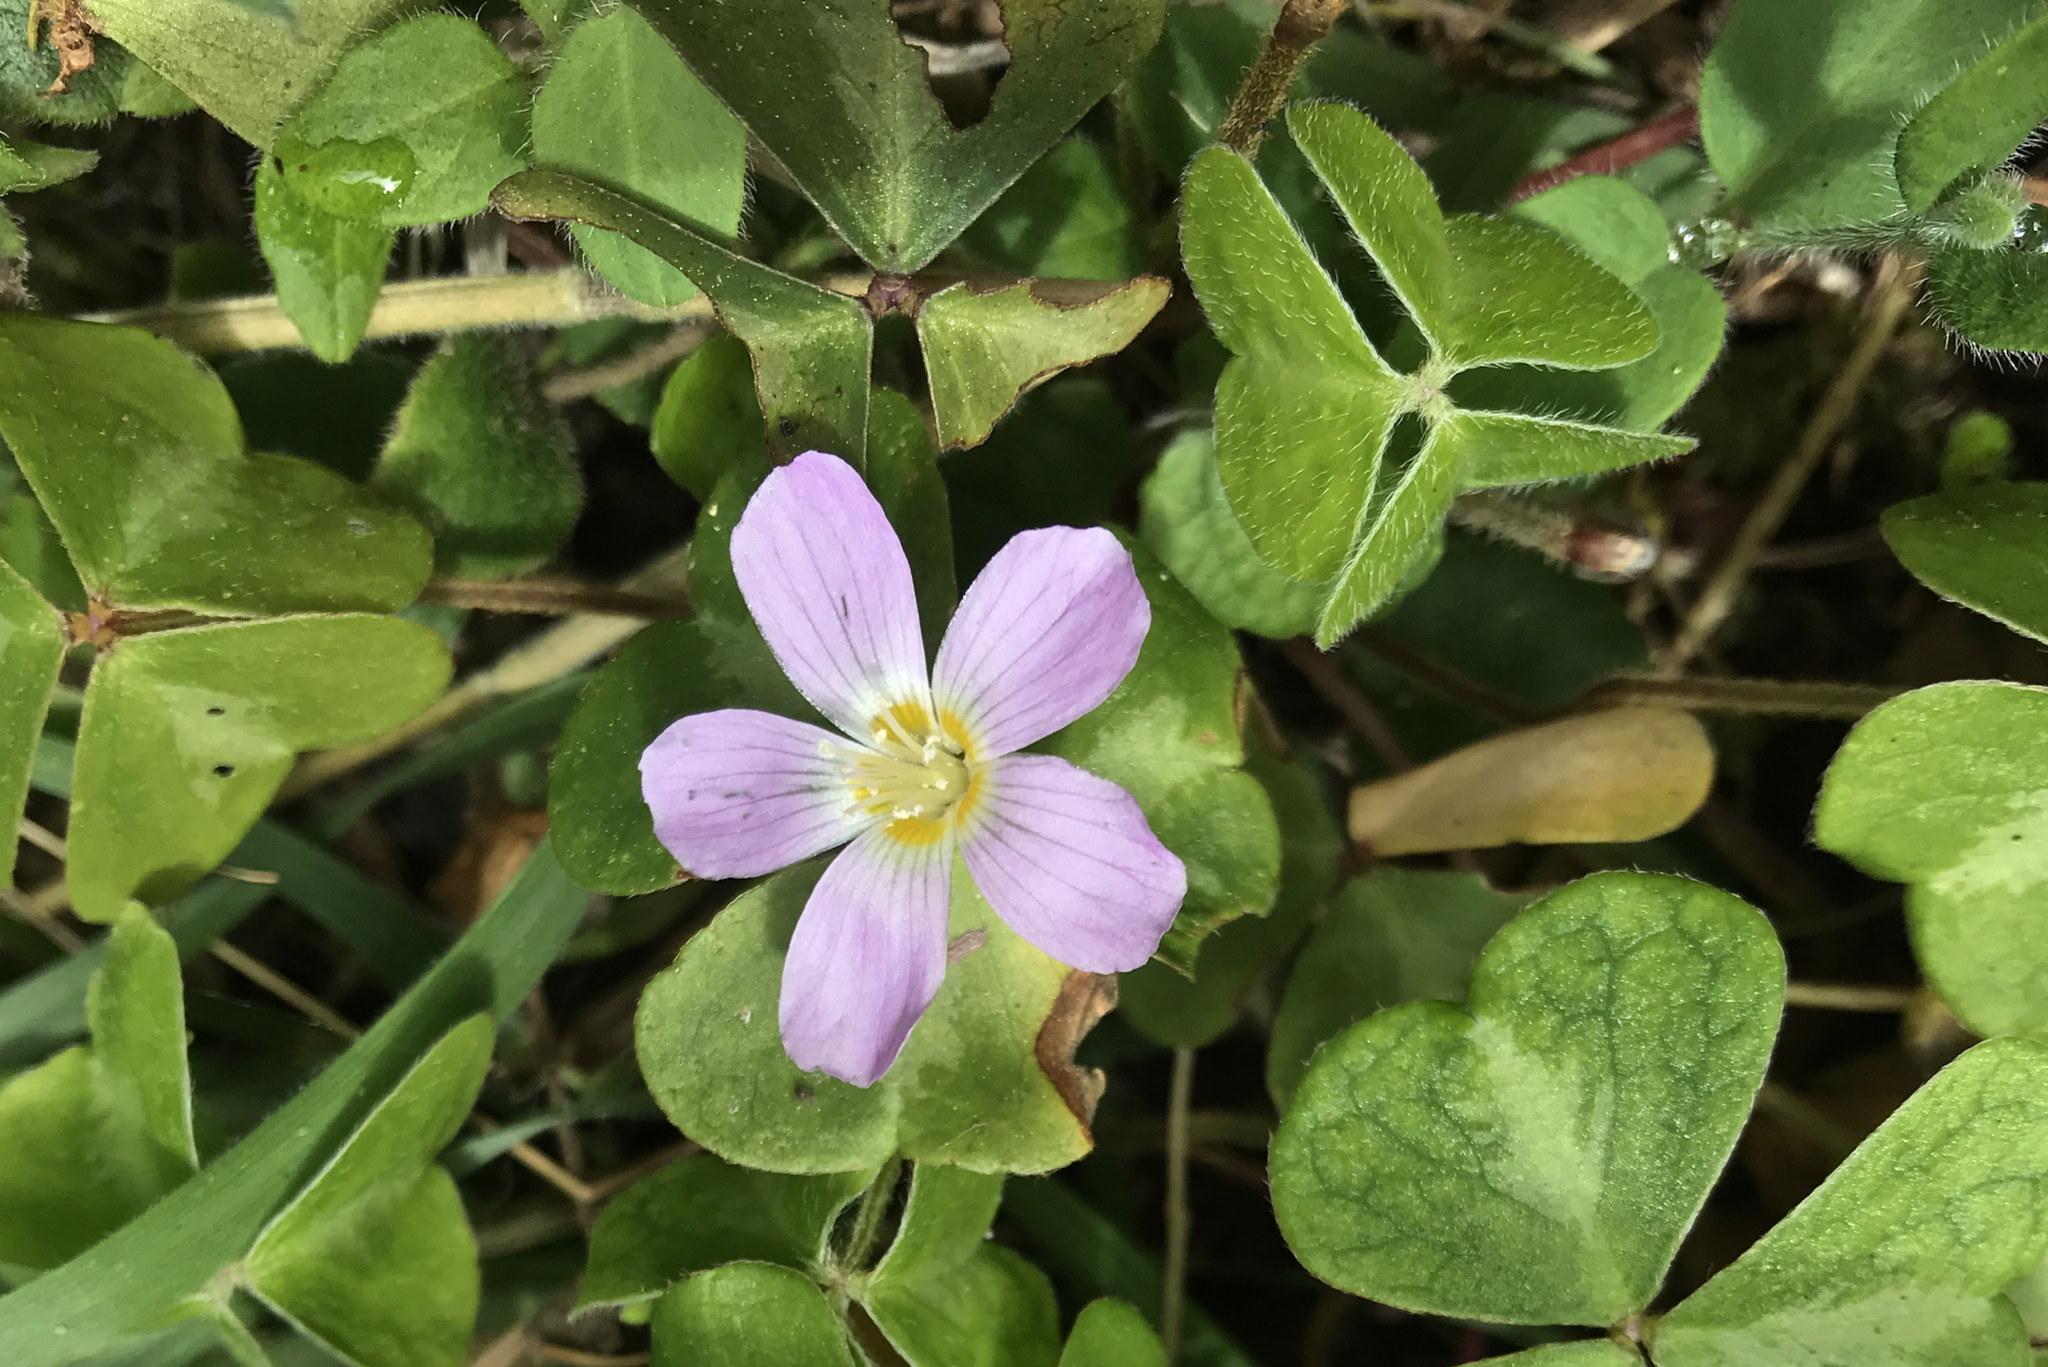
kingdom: Plantae
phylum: Tracheophyta
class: Magnoliopsida
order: Oxalidales
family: Oxalidaceae
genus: Oxalis
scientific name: Oxalis oregana
